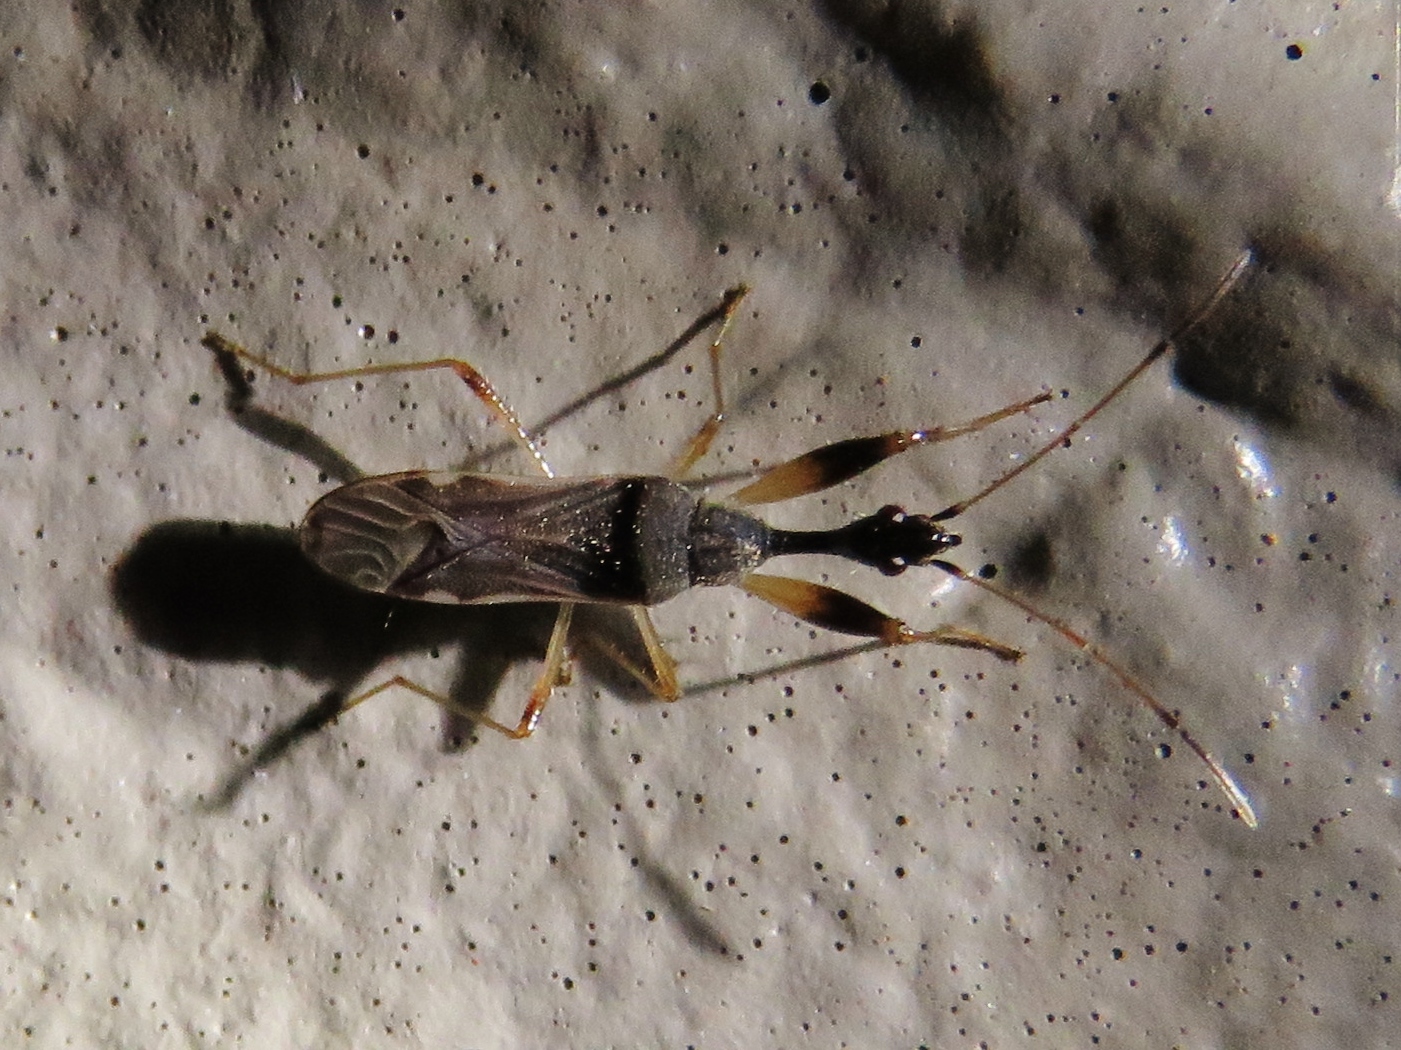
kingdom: Animalia
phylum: Arthropoda
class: Insecta
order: Hemiptera
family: Rhyparochromidae
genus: Myodocha
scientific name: Myodocha serripes
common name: Long-necked seed bug
